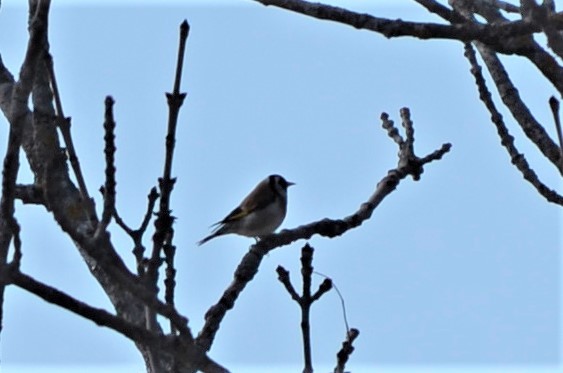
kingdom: Animalia
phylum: Chordata
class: Aves
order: Passeriformes
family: Fringillidae
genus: Carduelis
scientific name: Carduelis carduelis
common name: European goldfinch
